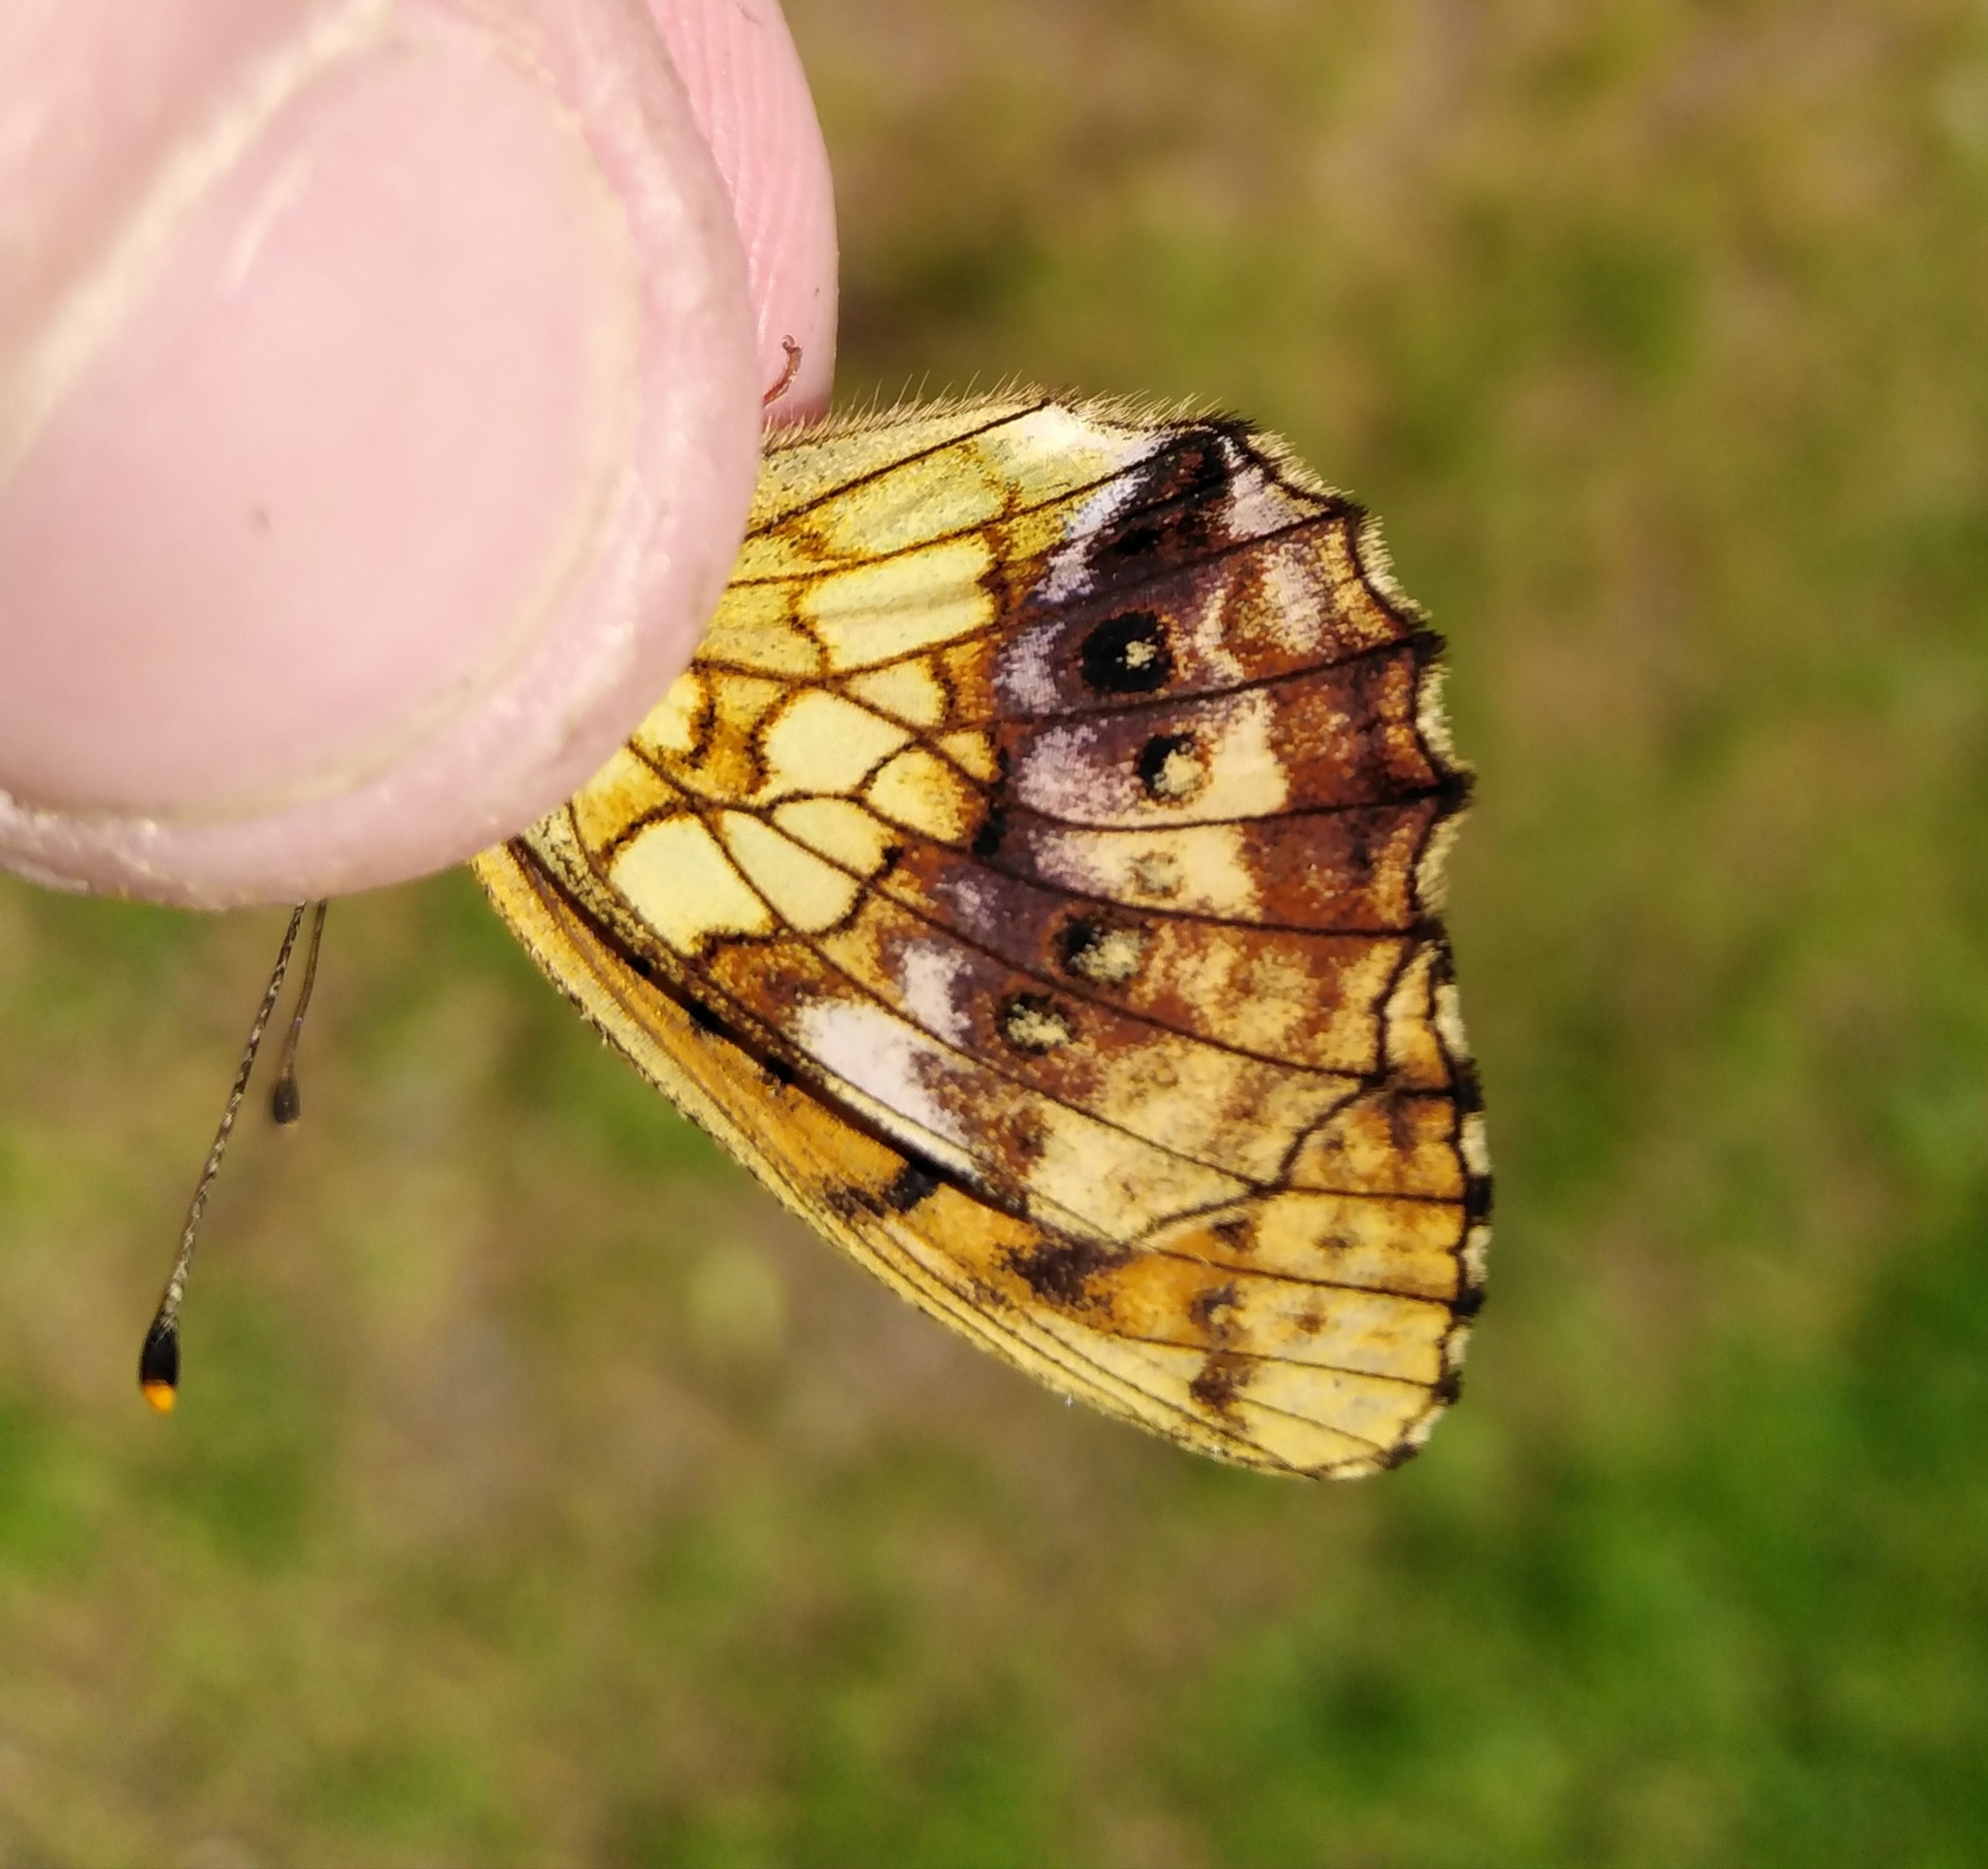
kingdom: Animalia
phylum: Arthropoda
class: Insecta
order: Lepidoptera
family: Nymphalidae
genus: Brenthis
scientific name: Brenthis ino
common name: Lesser marbled fritillary
